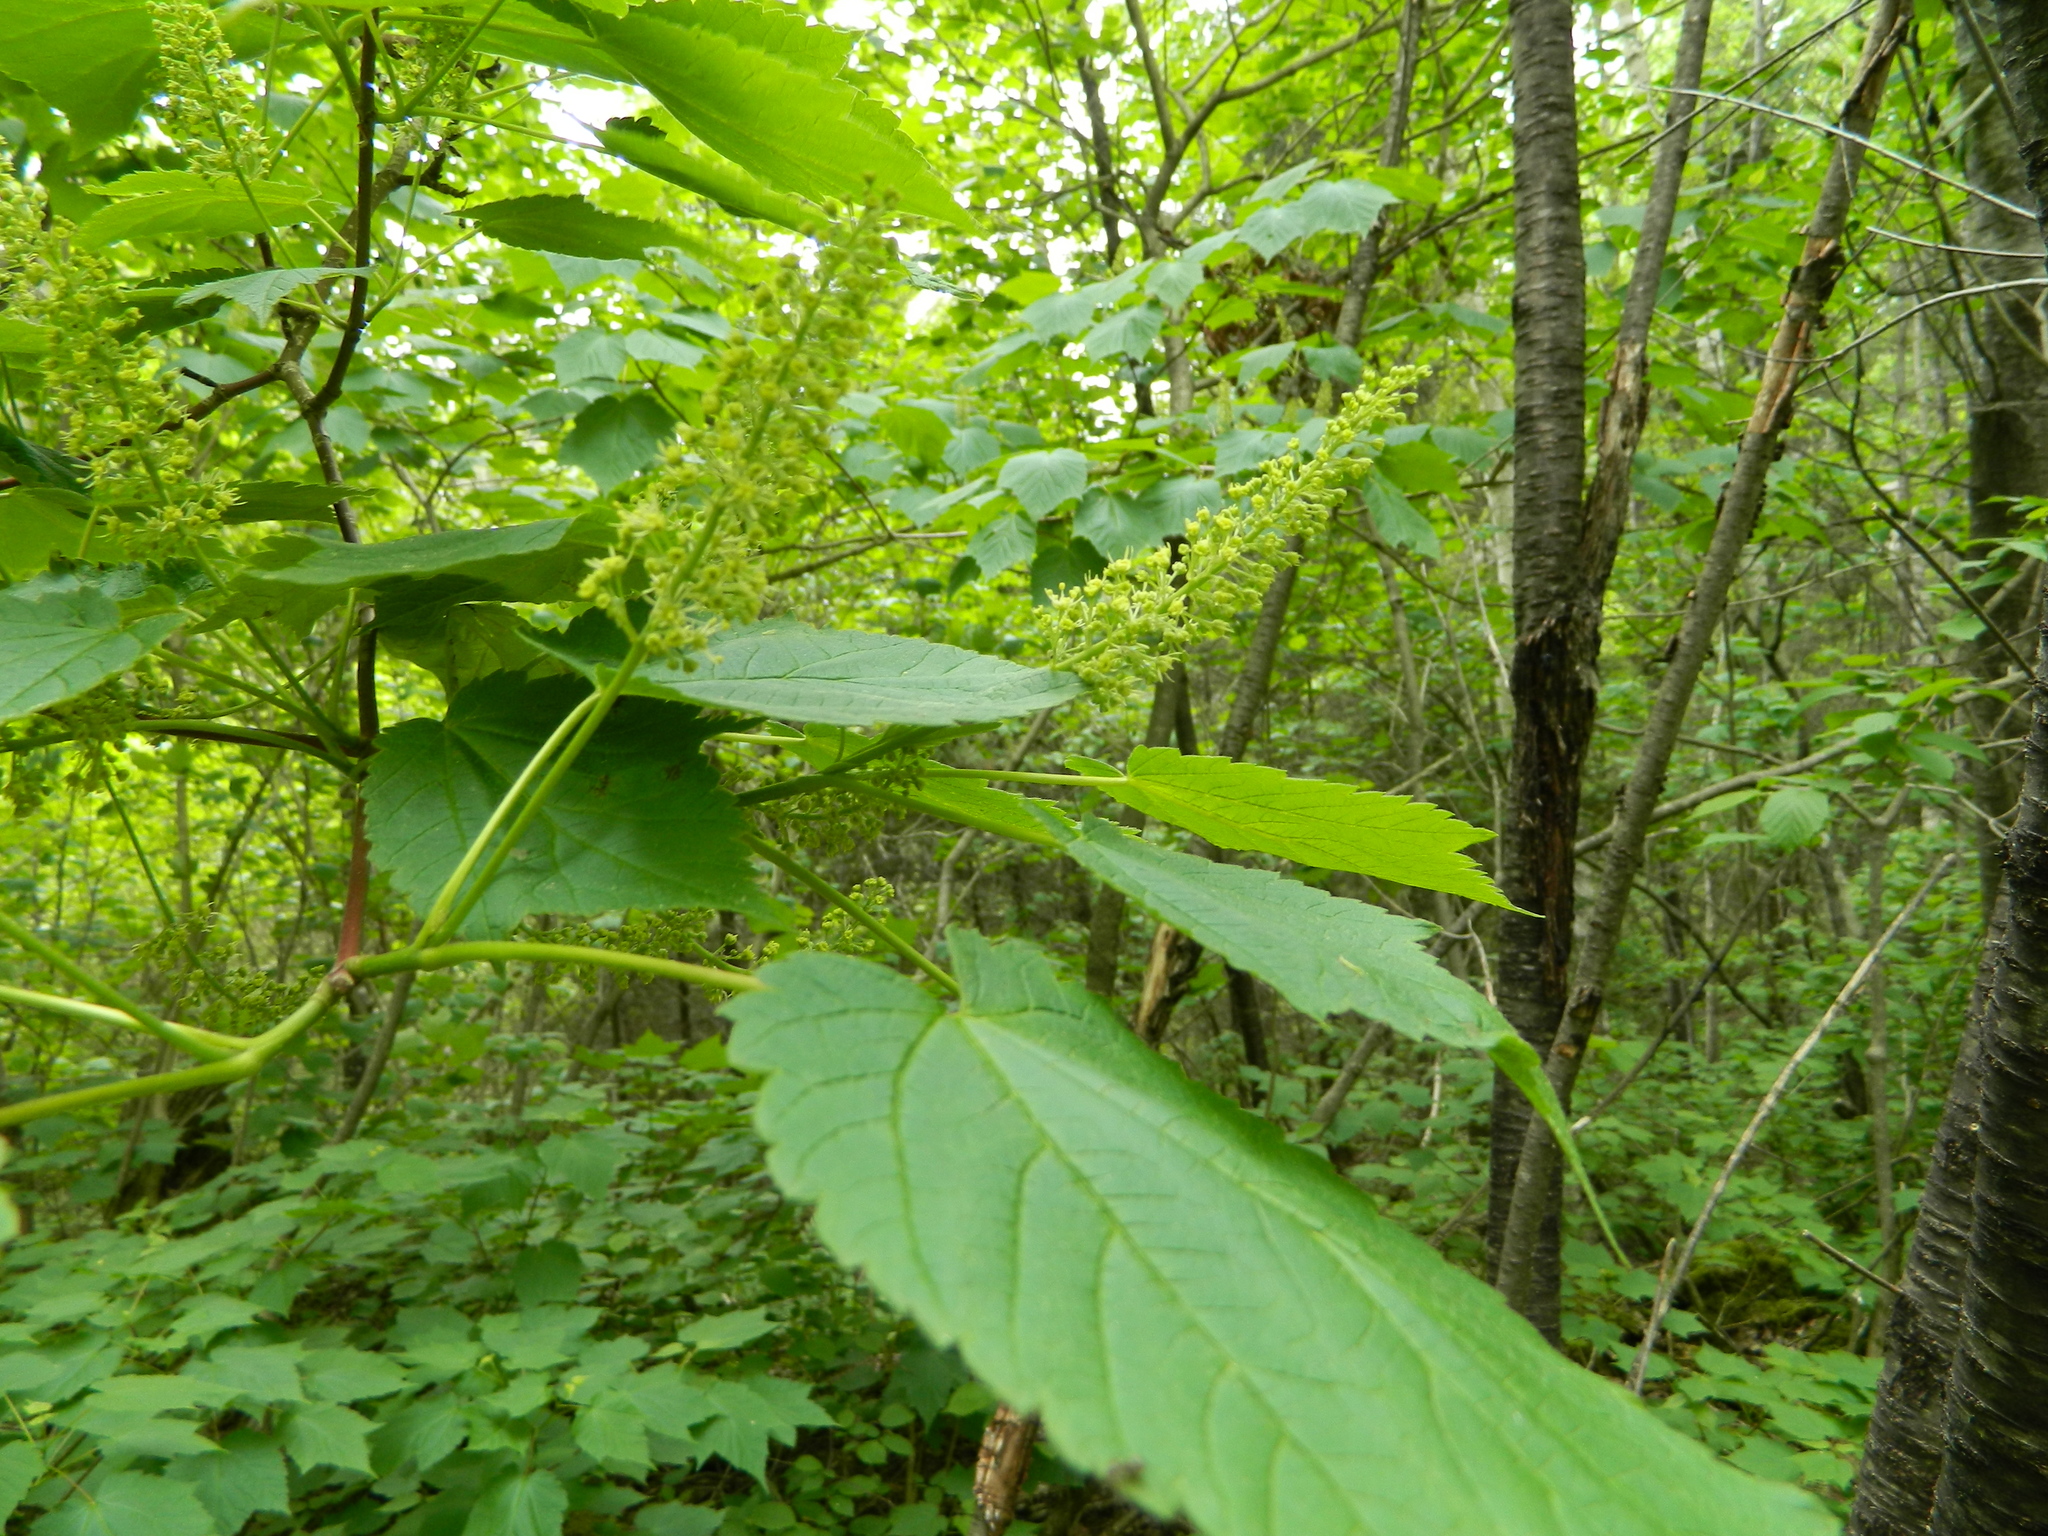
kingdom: Plantae
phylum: Tracheophyta
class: Magnoliopsida
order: Sapindales
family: Sapindaceae
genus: Acer
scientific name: Acer spicatum
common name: Mountain maple
